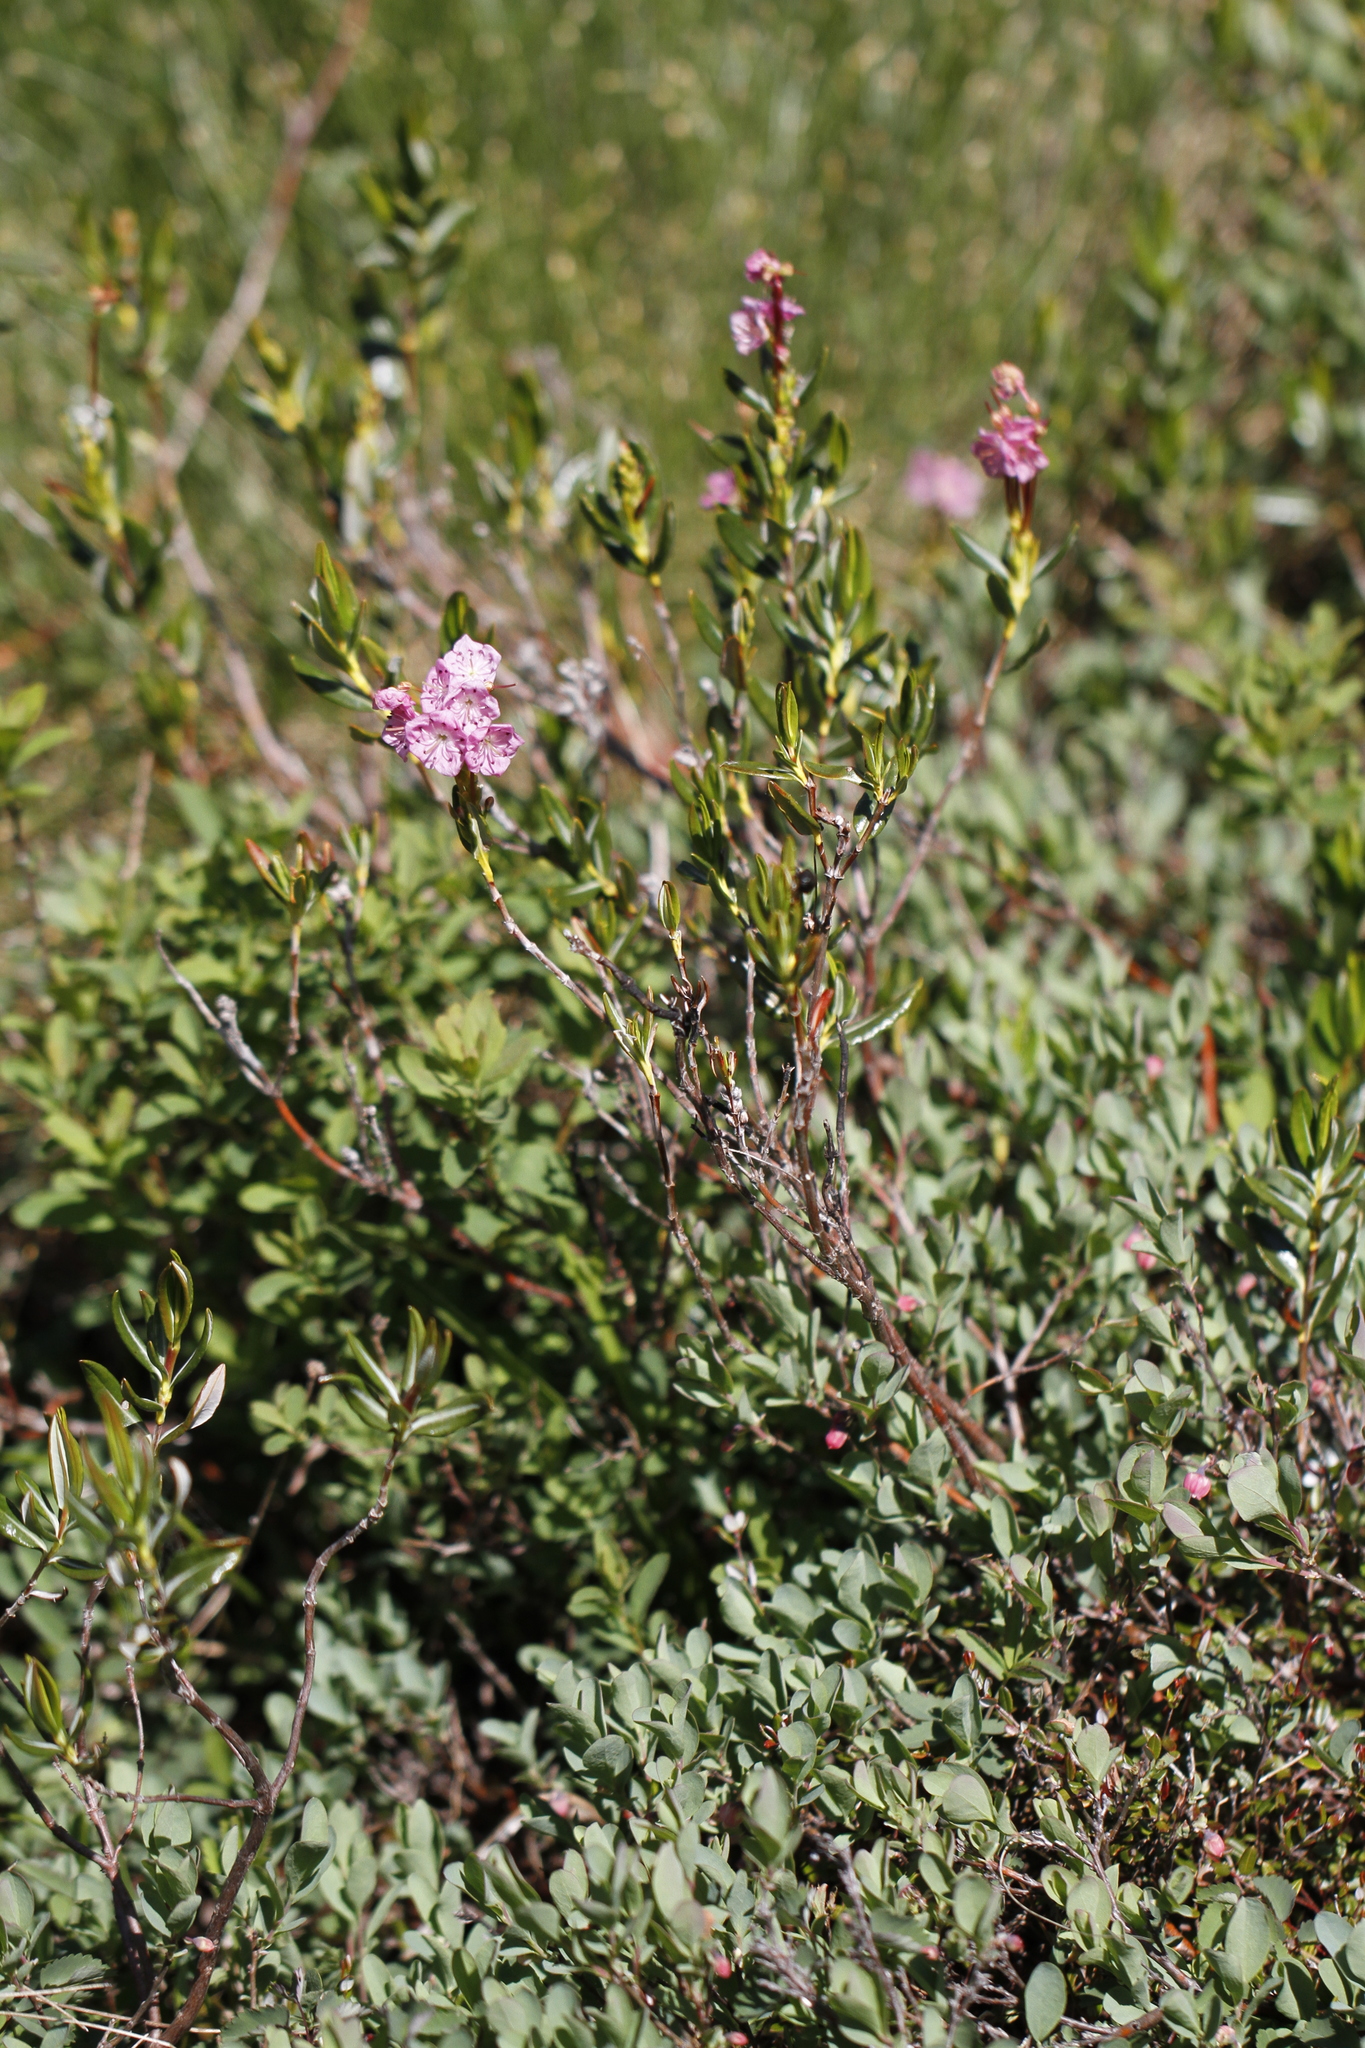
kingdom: Plantae
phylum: Tracheophyta
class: Magnoliopsida
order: Ericales
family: Ericaceae
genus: Kalmia
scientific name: Kalmia microphylla
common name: Alpine bog laurel
